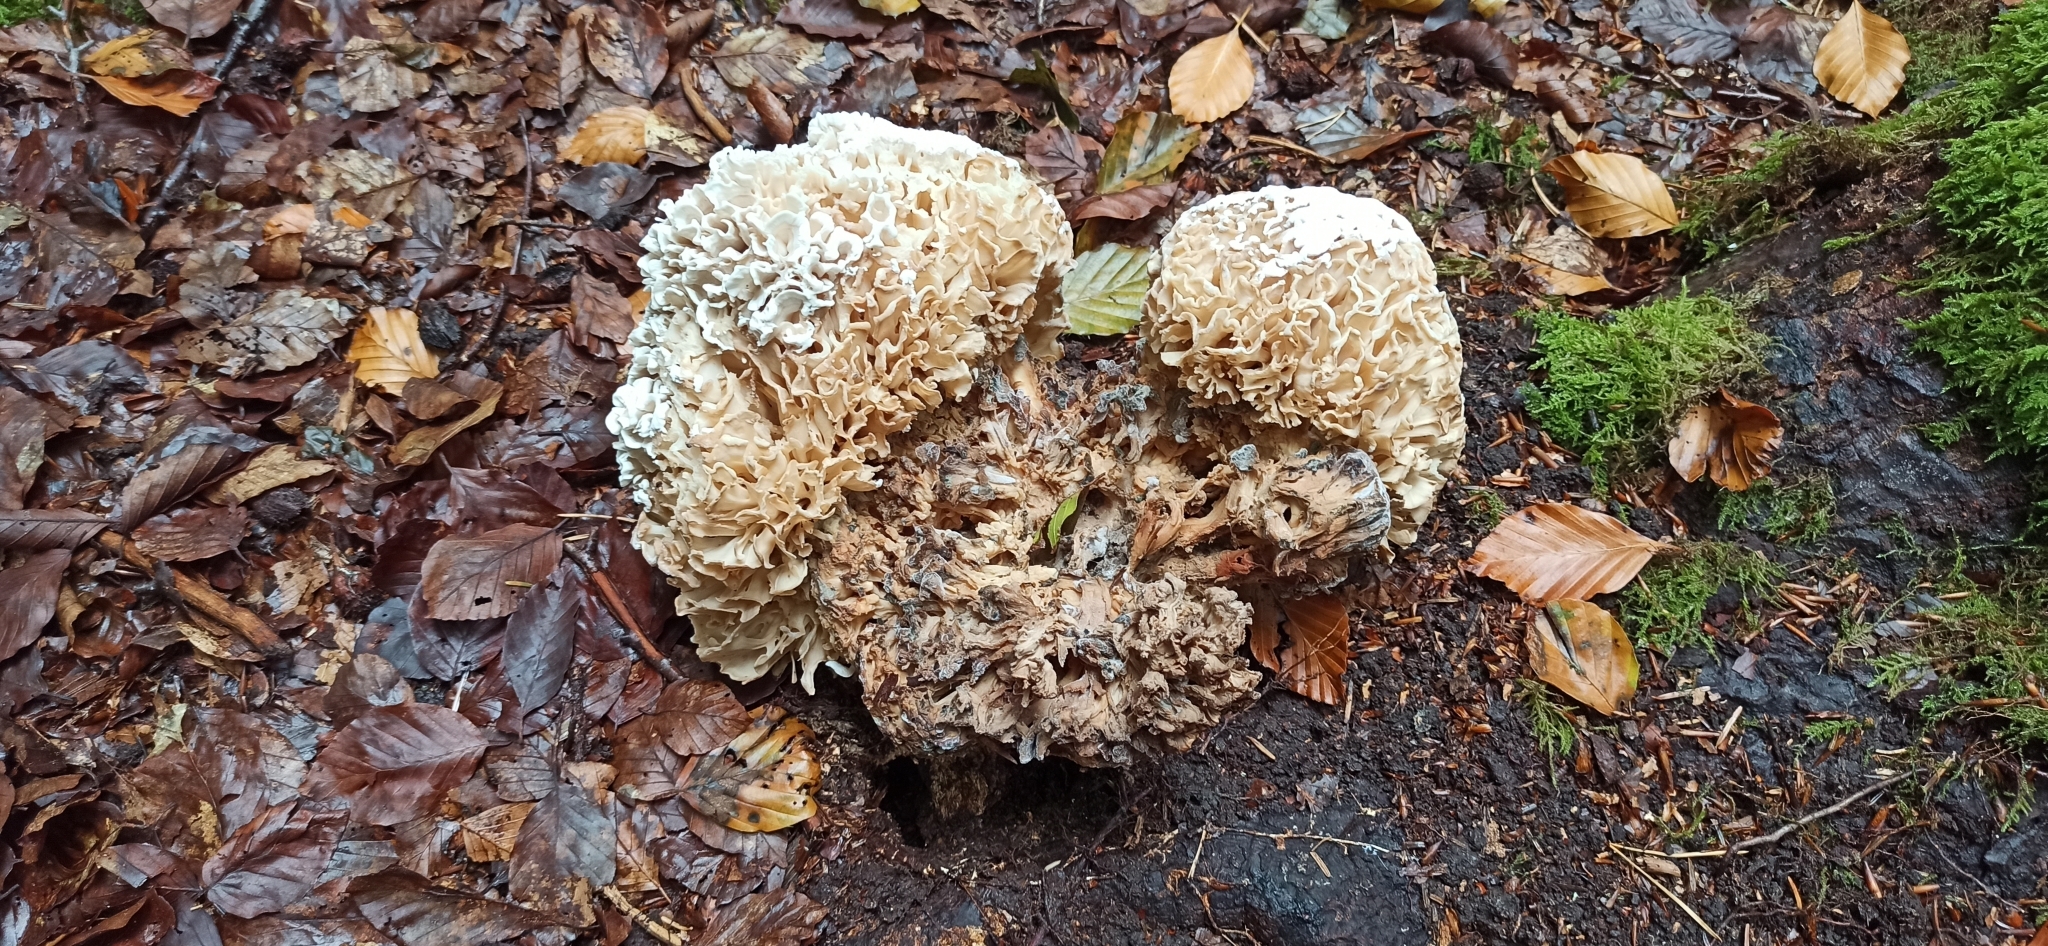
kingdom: Fungi
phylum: Basidiomycota
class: Agaricomycetes
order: Polyporales
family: Sparassidaceae
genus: Sparassis
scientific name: Sparassis crispa
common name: Brain fungus
